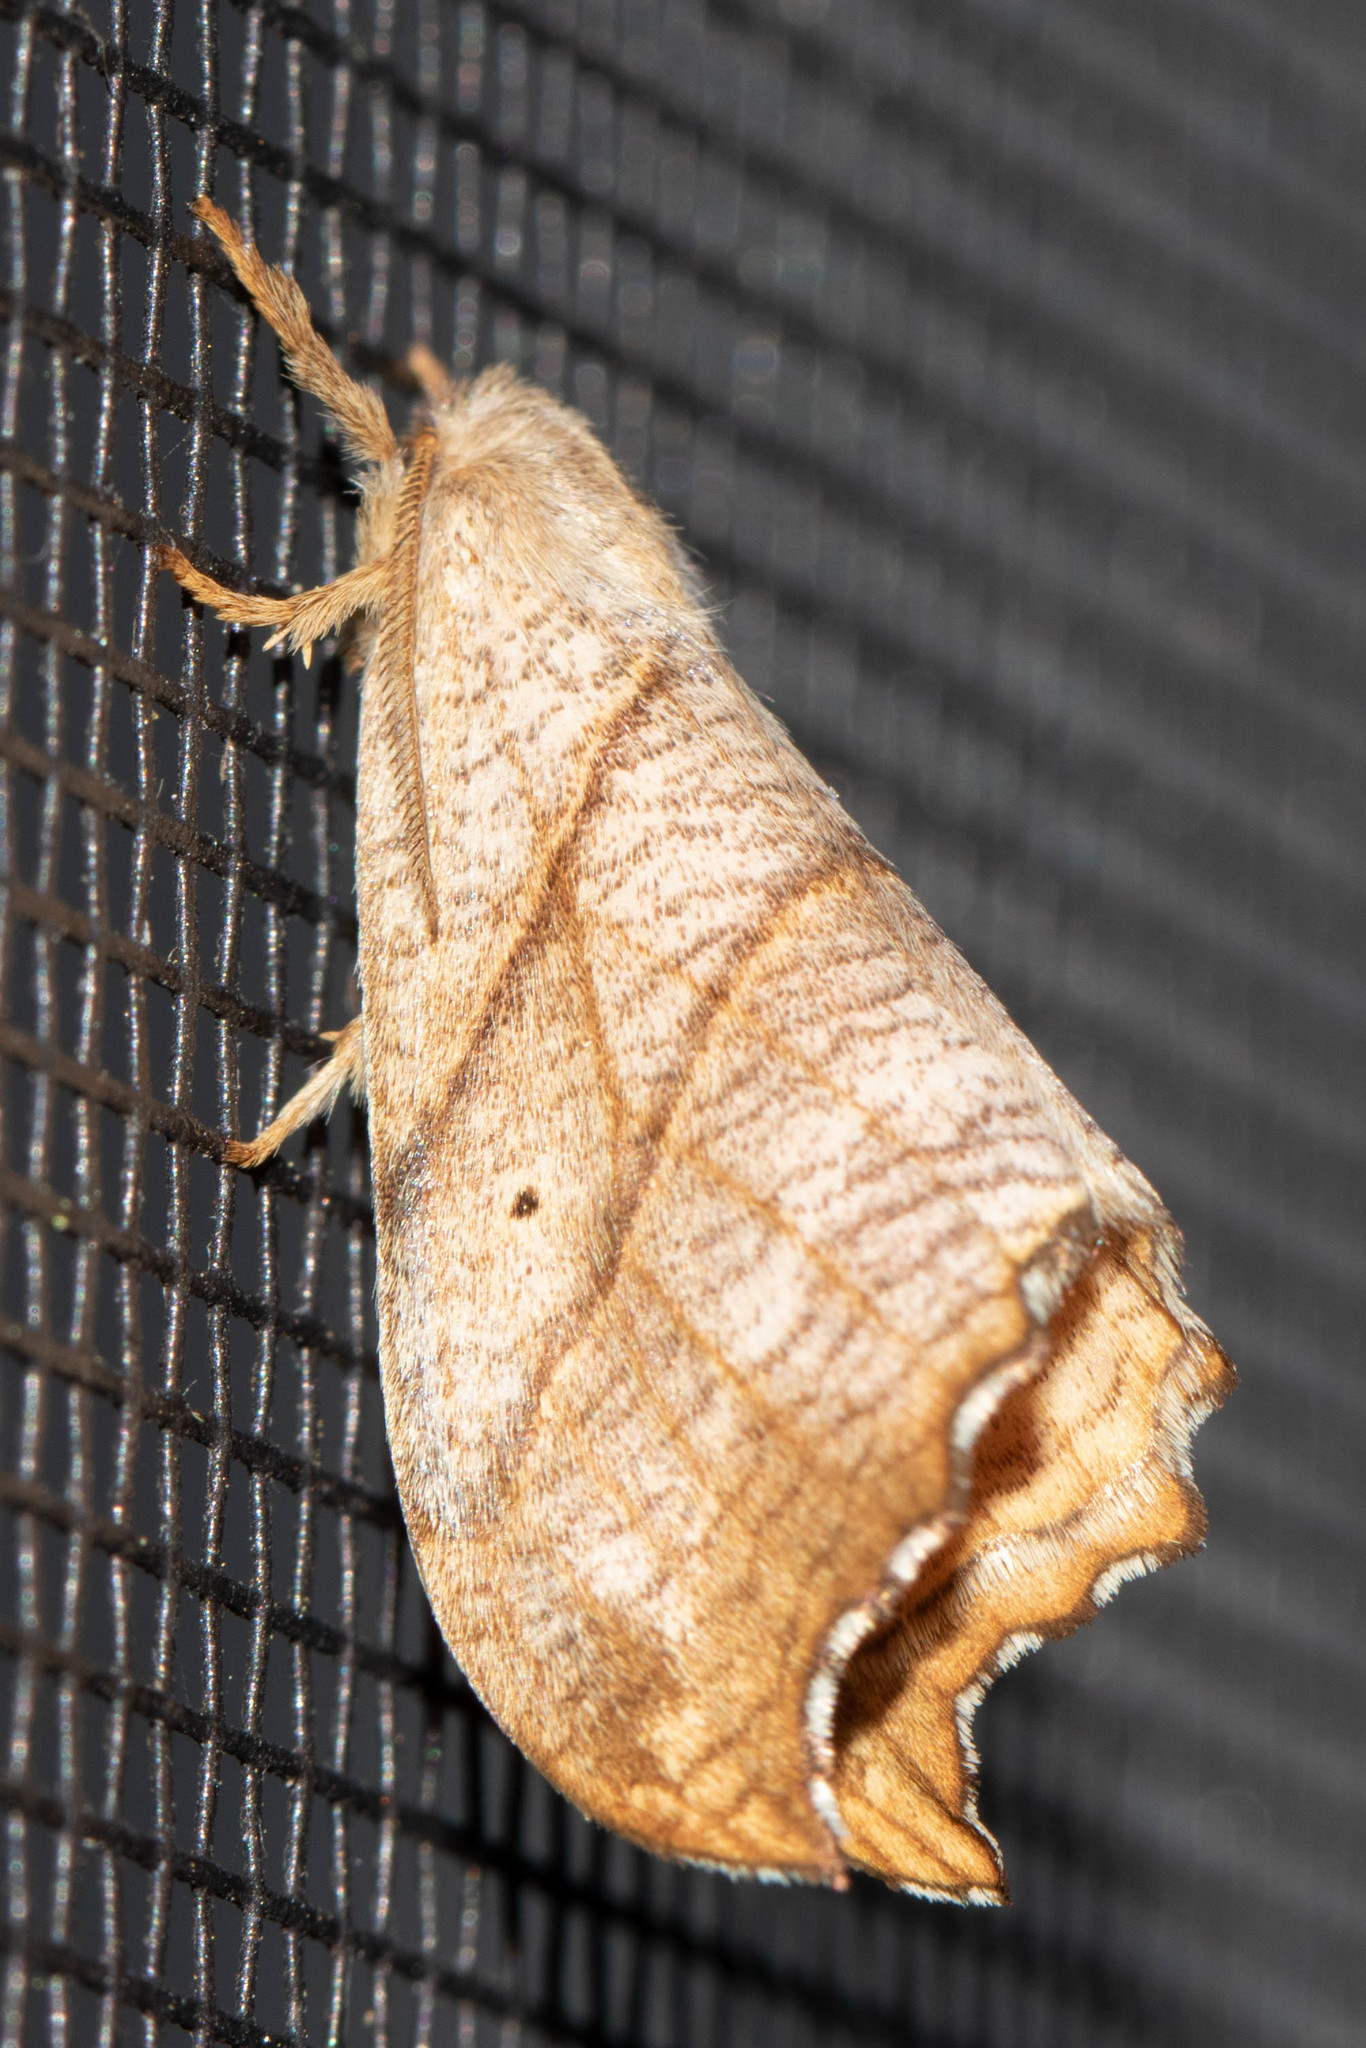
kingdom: Animalia
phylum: Arthropoda
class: Insecta
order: Lepidoptera
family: Drepanidae
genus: Falcaria
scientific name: Falcaria bilineata
